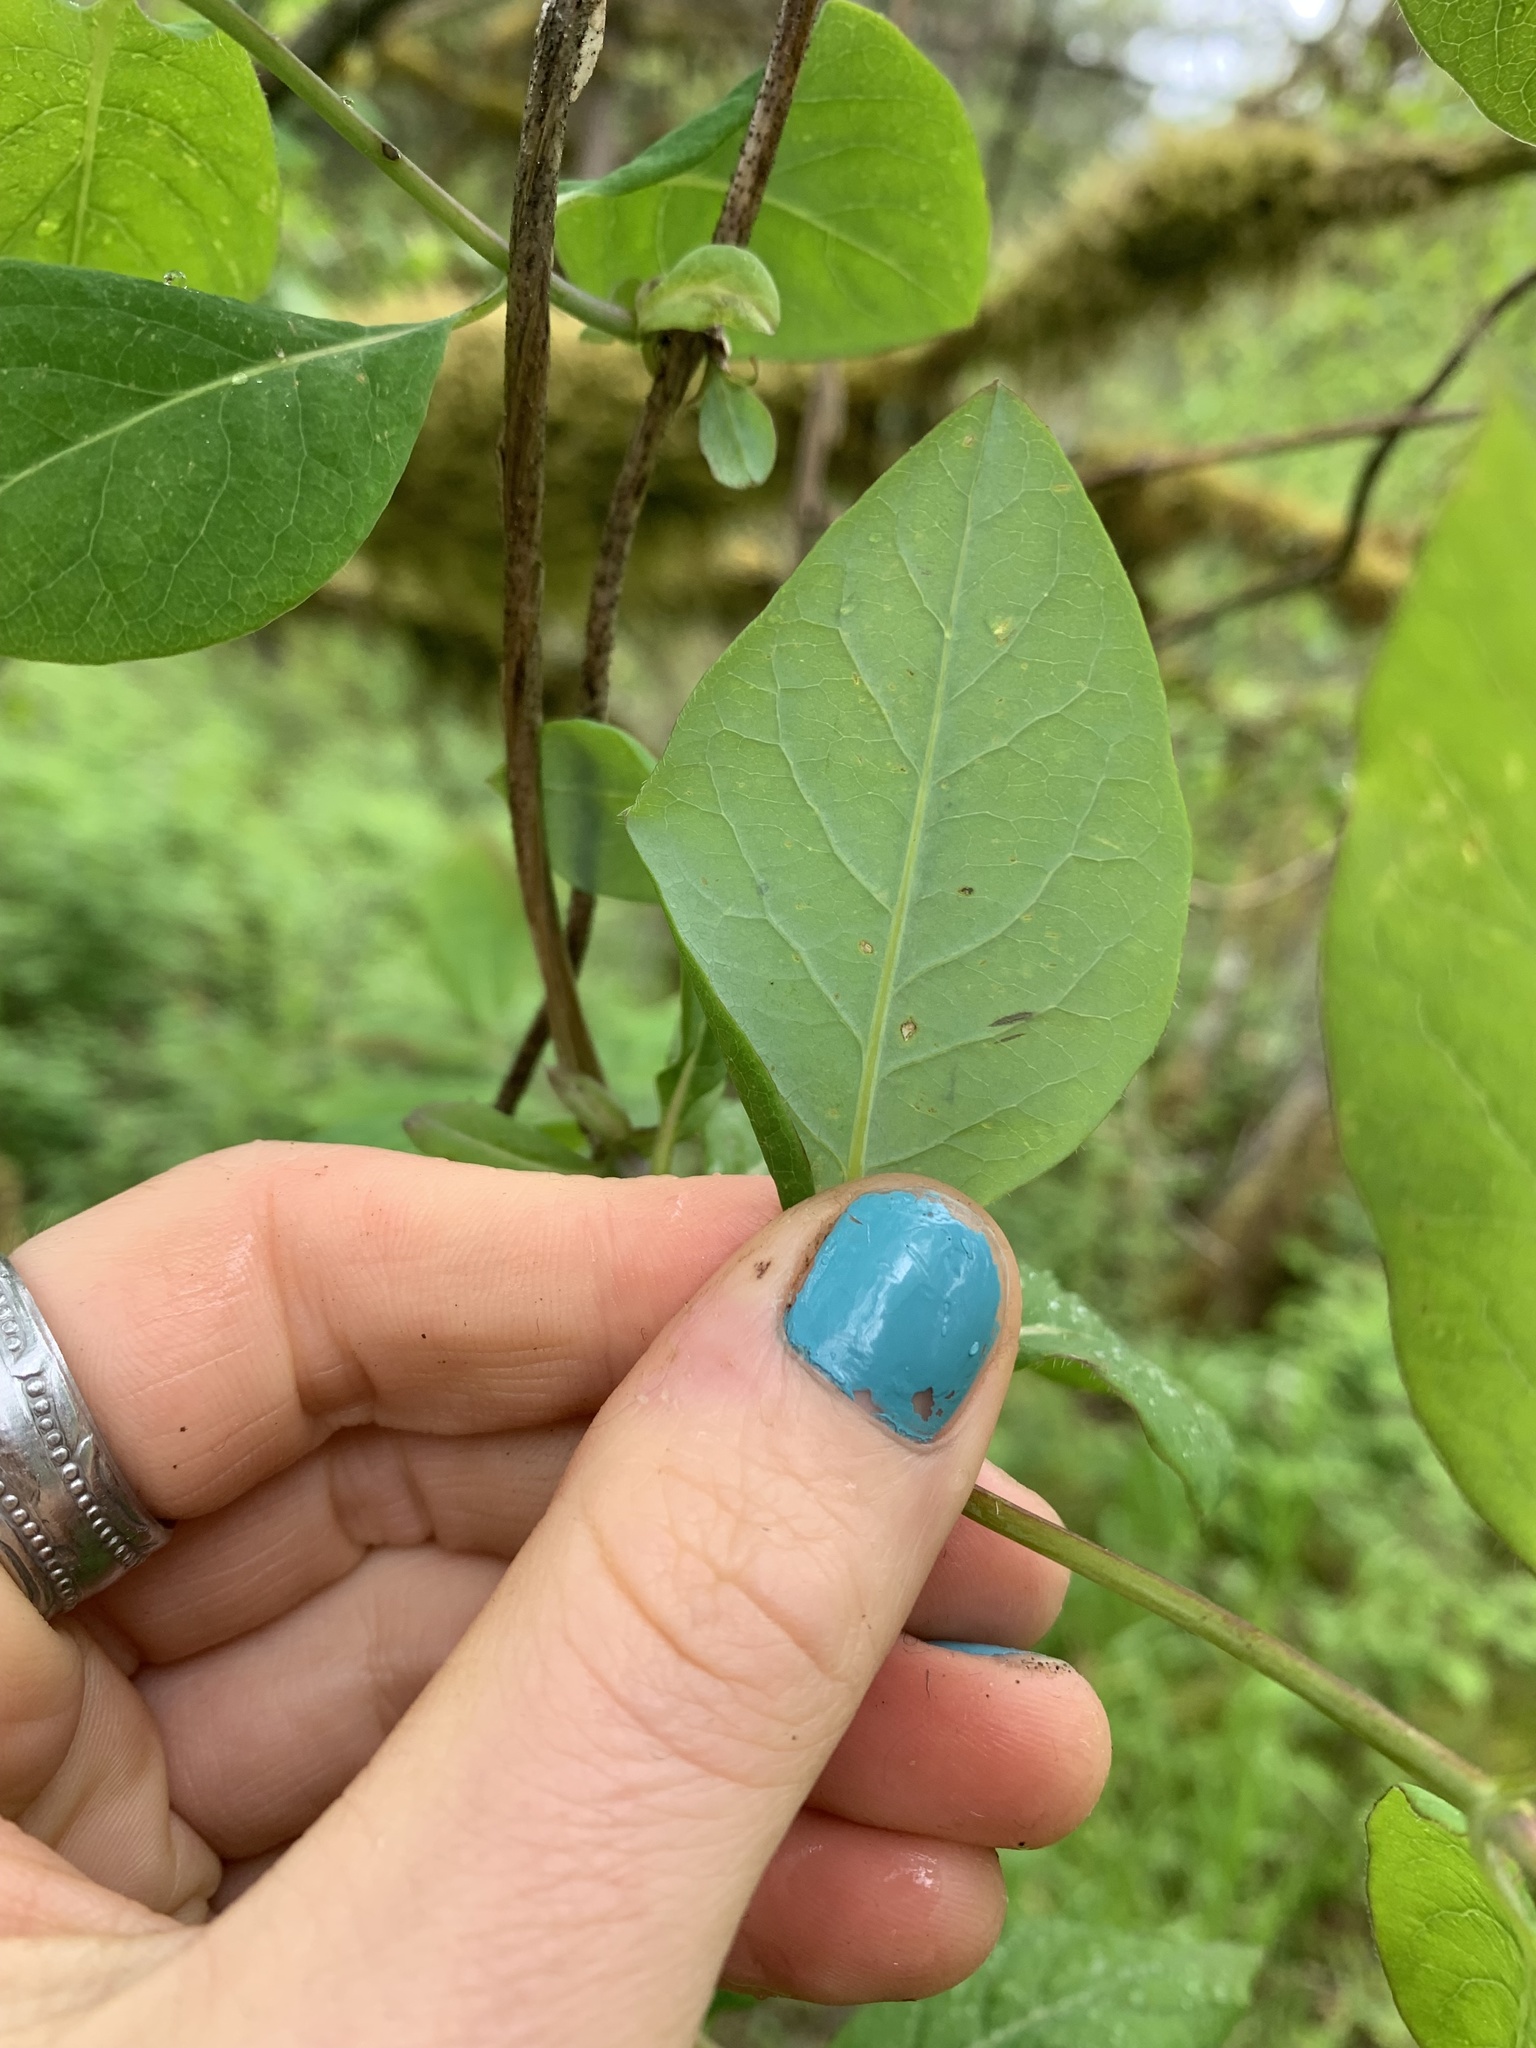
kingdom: Plantae
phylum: Tracheophyta
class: Magnoliopsida
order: Dipsacales
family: Caprifoliaceae
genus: Lonicera
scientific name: Lonicera ciliosa
